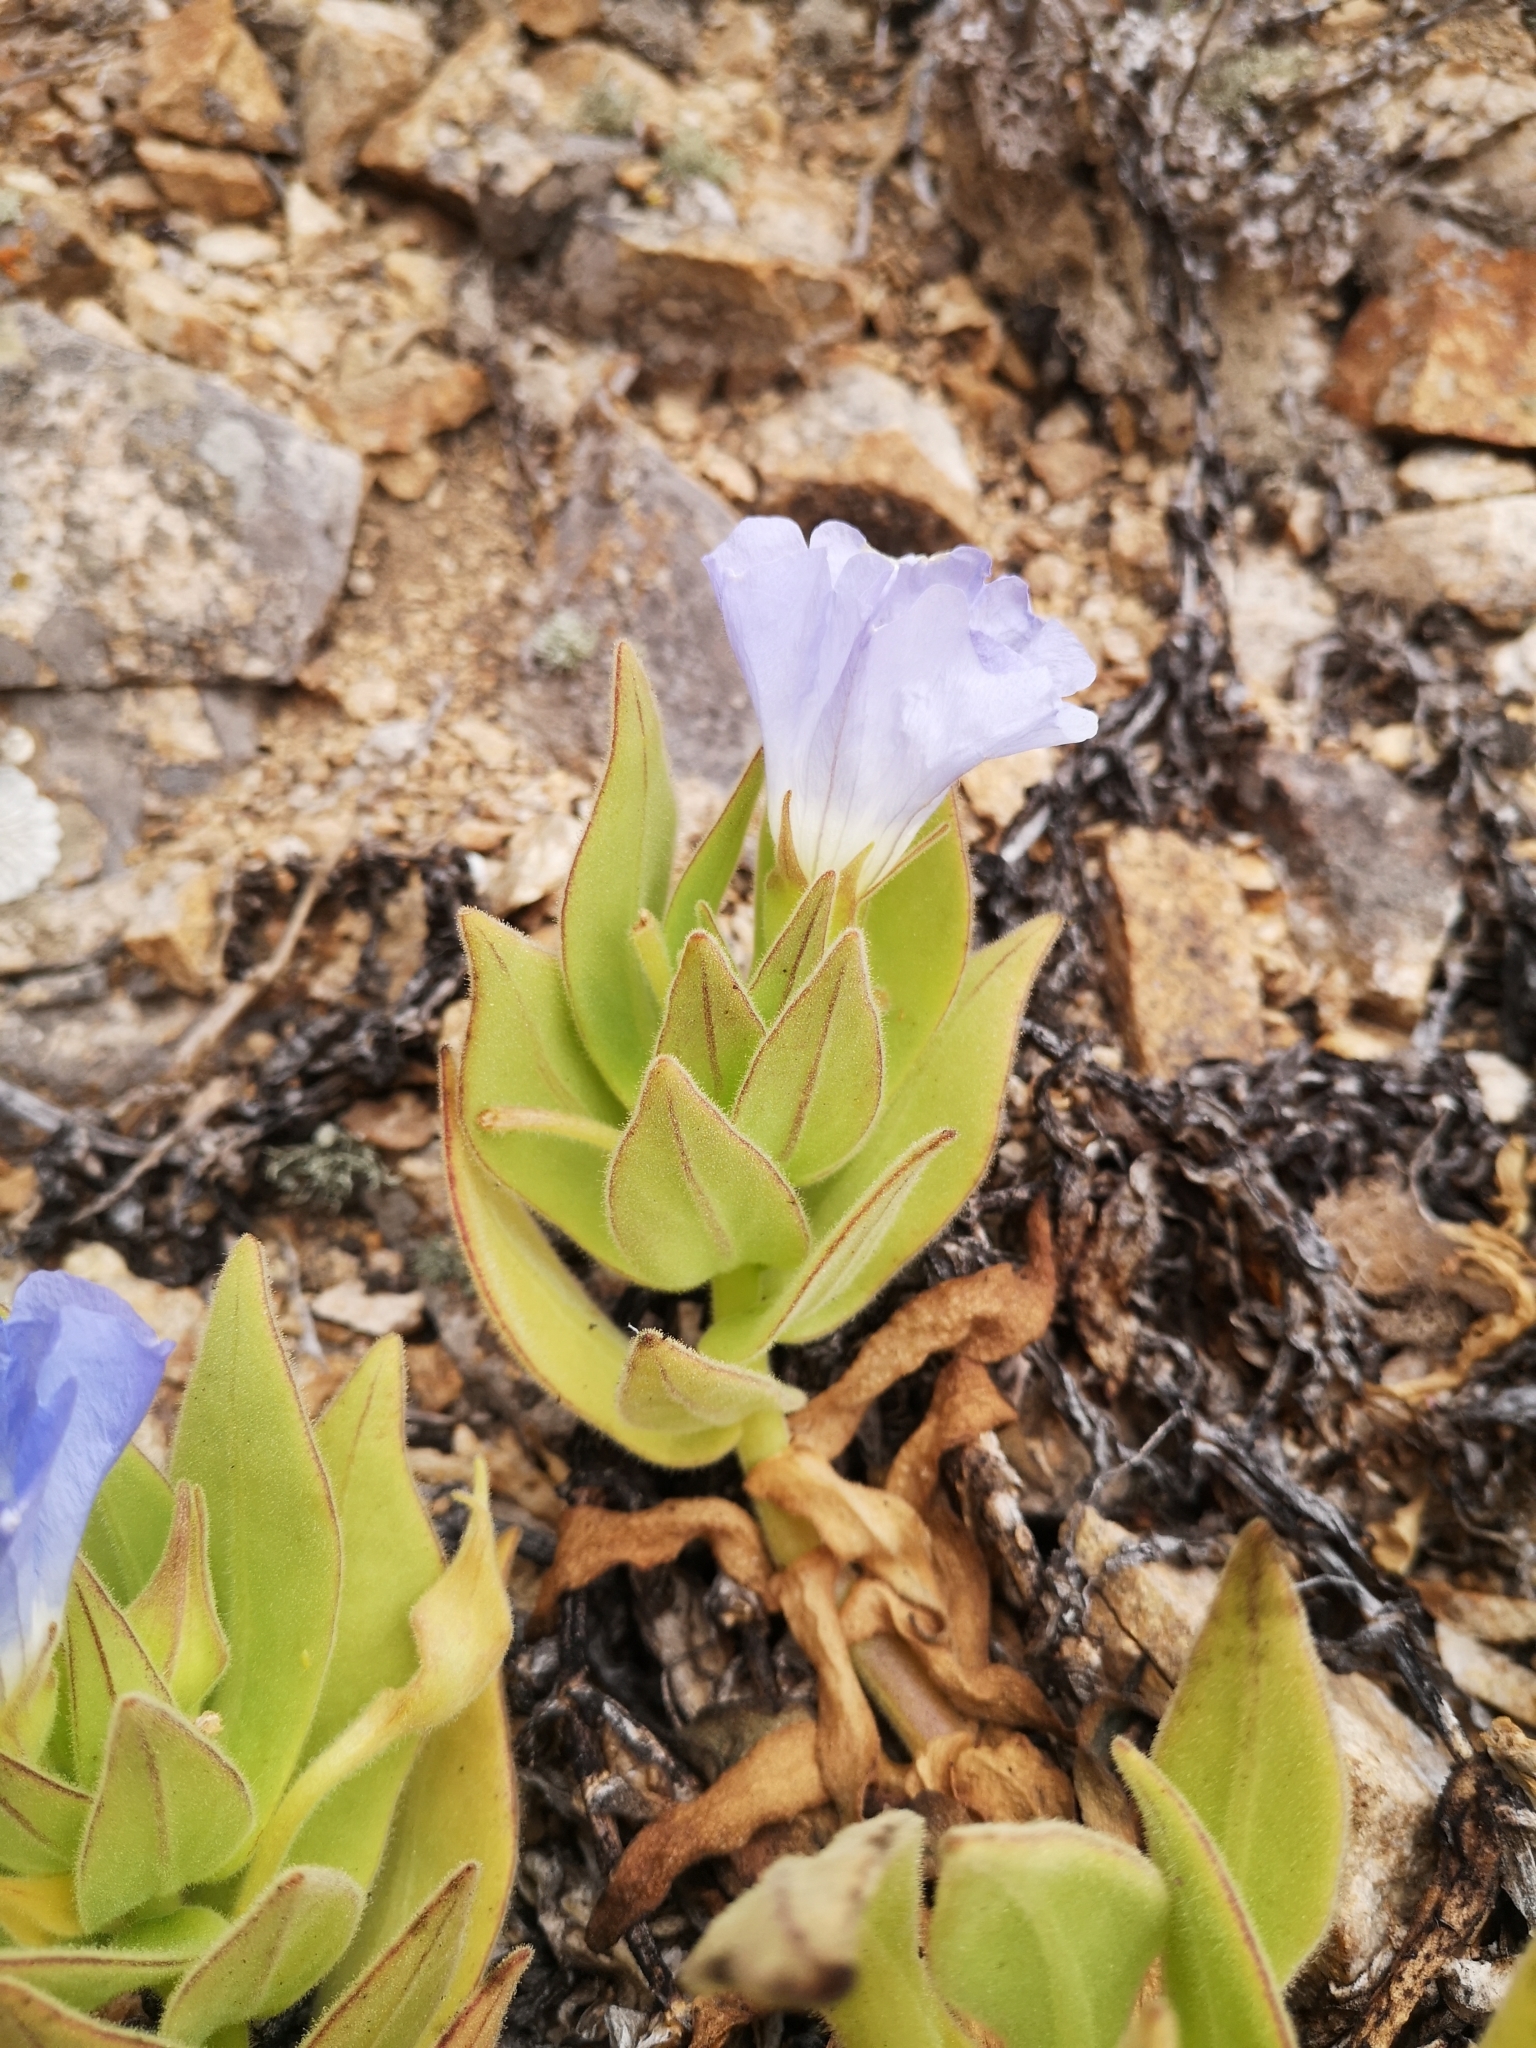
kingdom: Plantae
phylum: Tracheophyta
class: Magnoliopsida
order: Solanales
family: Solanaceae
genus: Nolana
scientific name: Nolana rupicola
